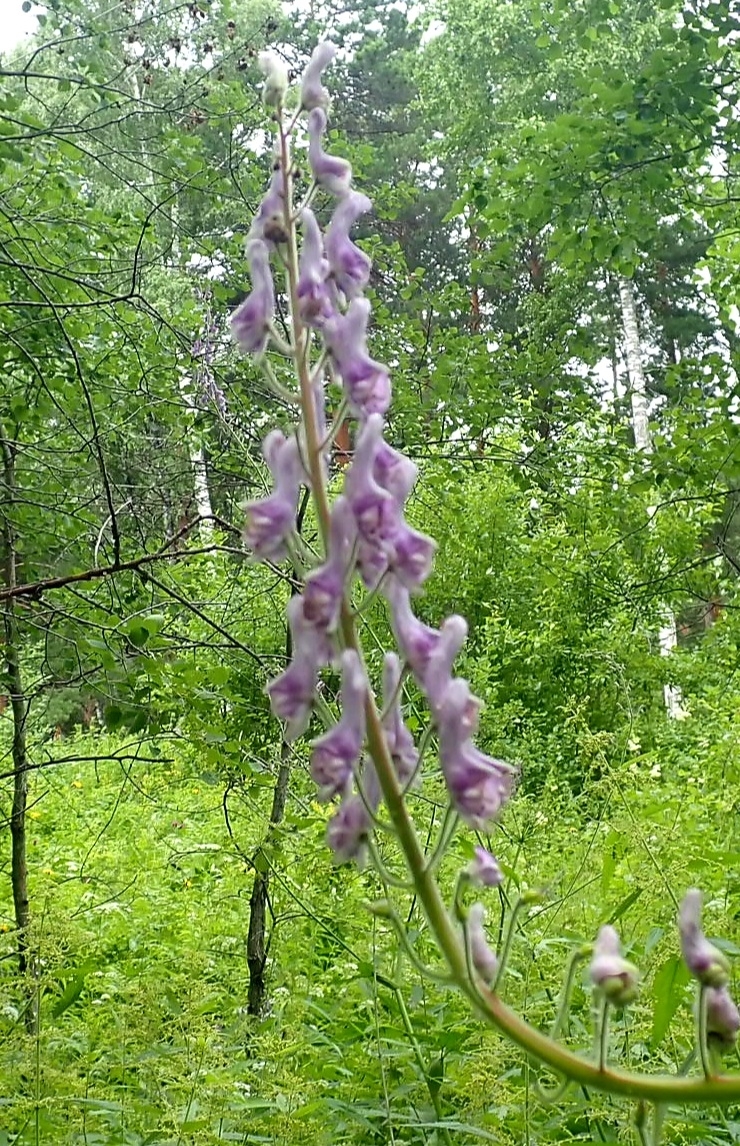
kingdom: Plantae
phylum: Tracheophyta
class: Magnoliopsida
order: Ranunculales
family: Ranunculaceae
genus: Aconitum
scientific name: Aconitum septentrionale
